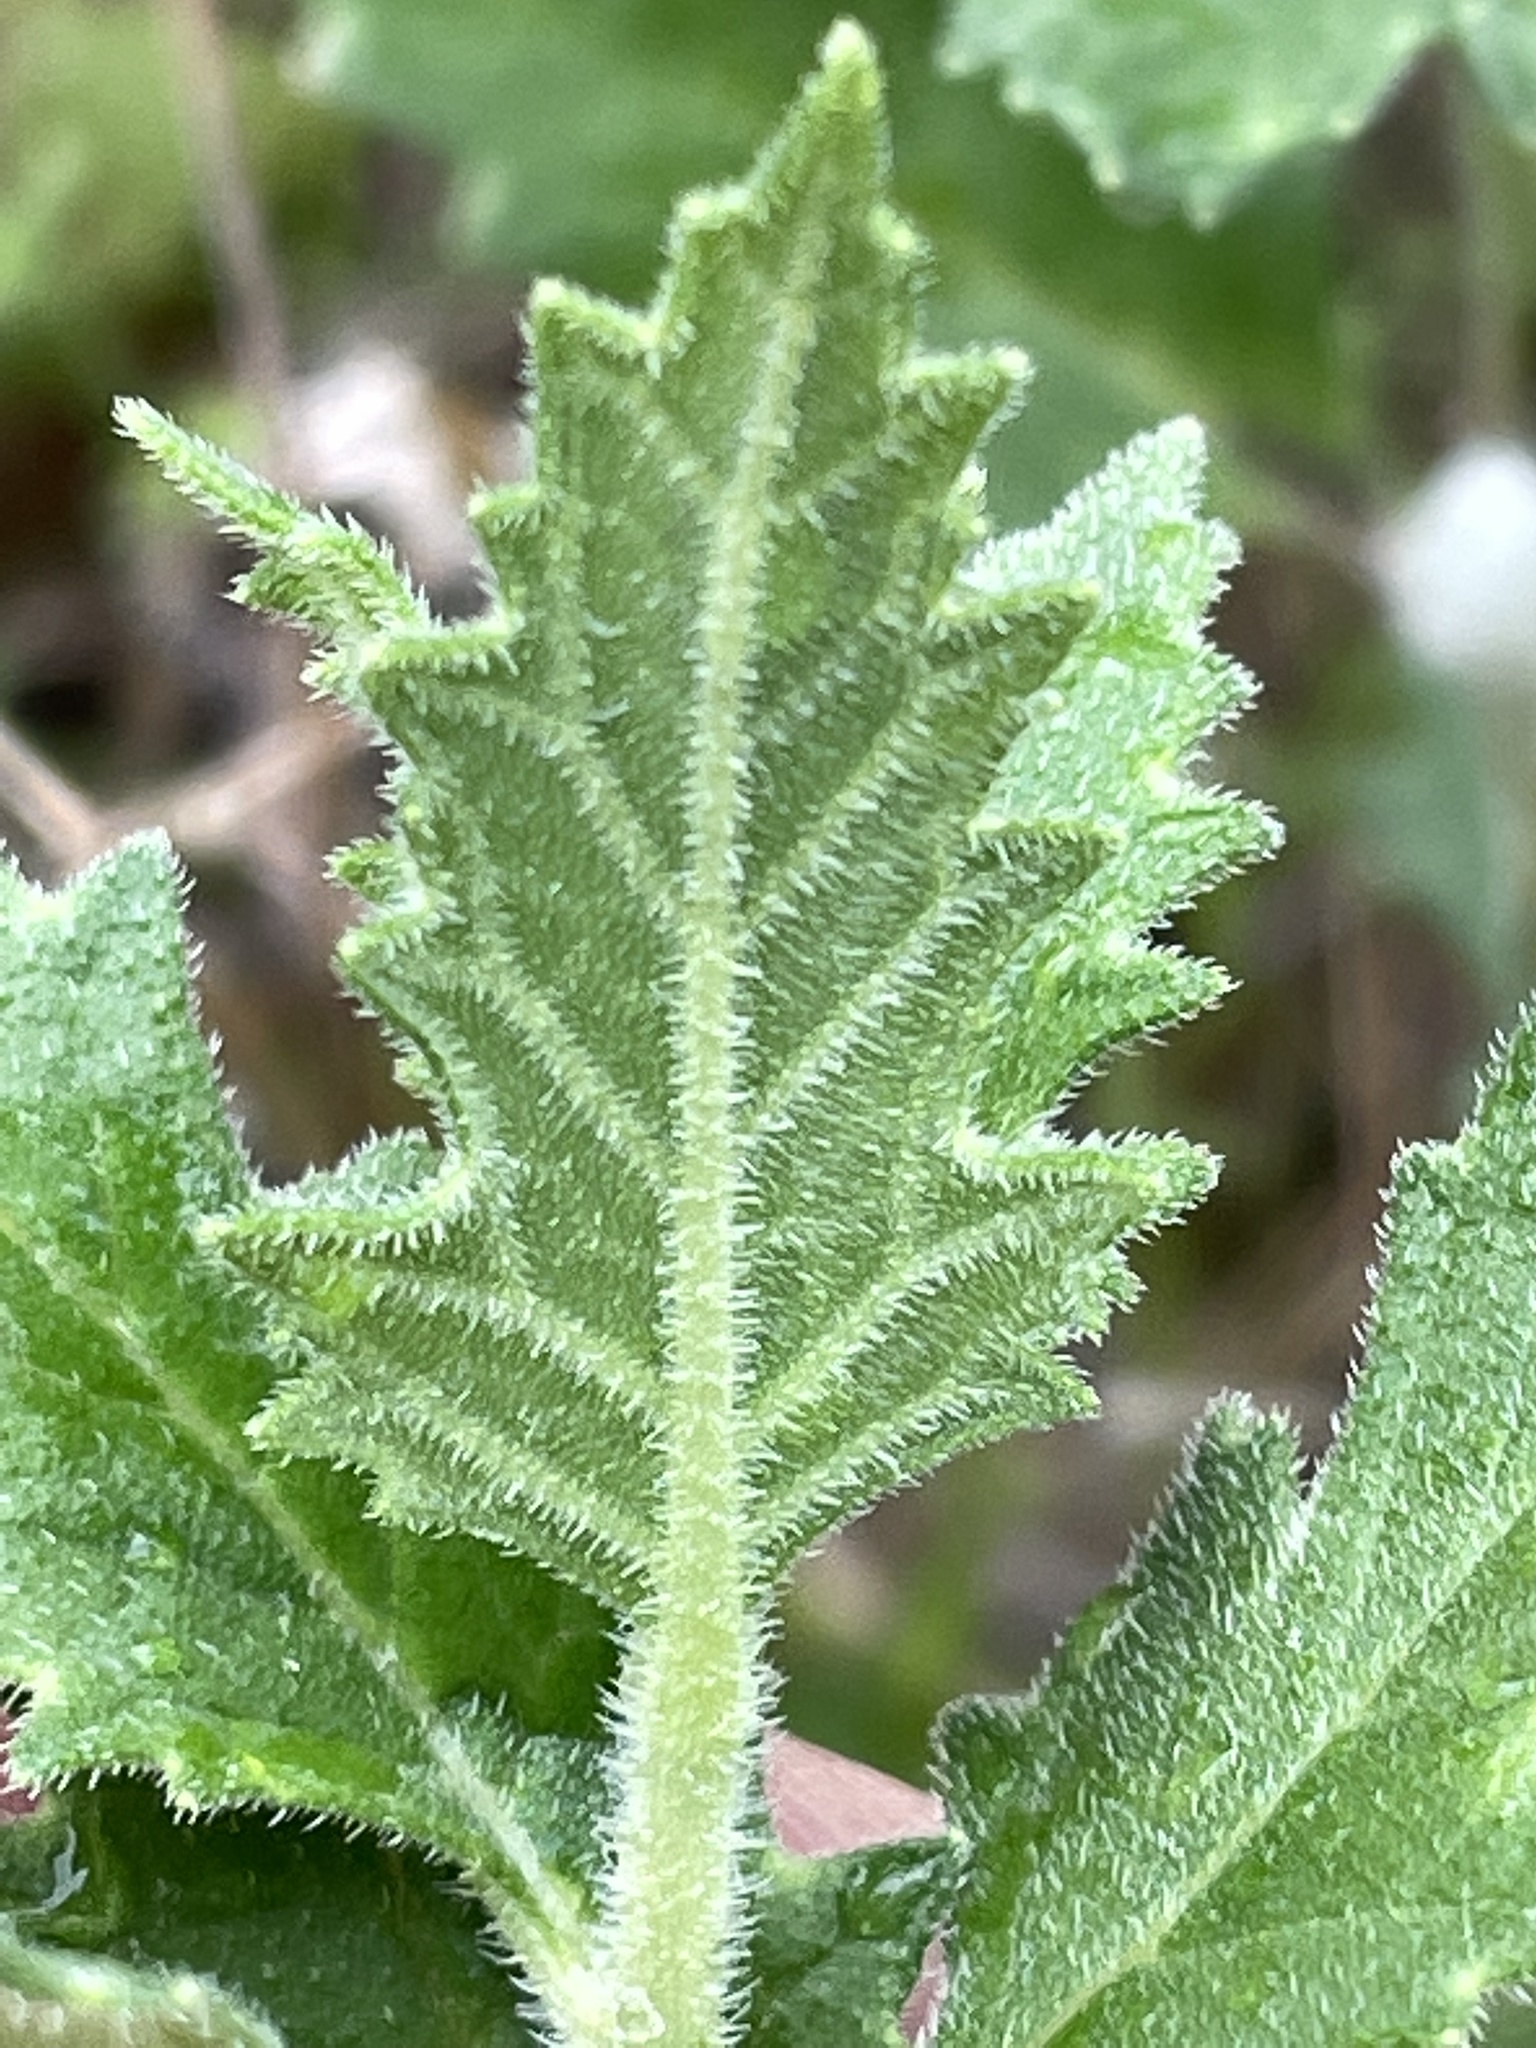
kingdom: Plantae
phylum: Tracheophyta
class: Magnoliopsida
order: Cornales
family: Loasaceae
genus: Mentzelia
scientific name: Mentzelia oligosperma
